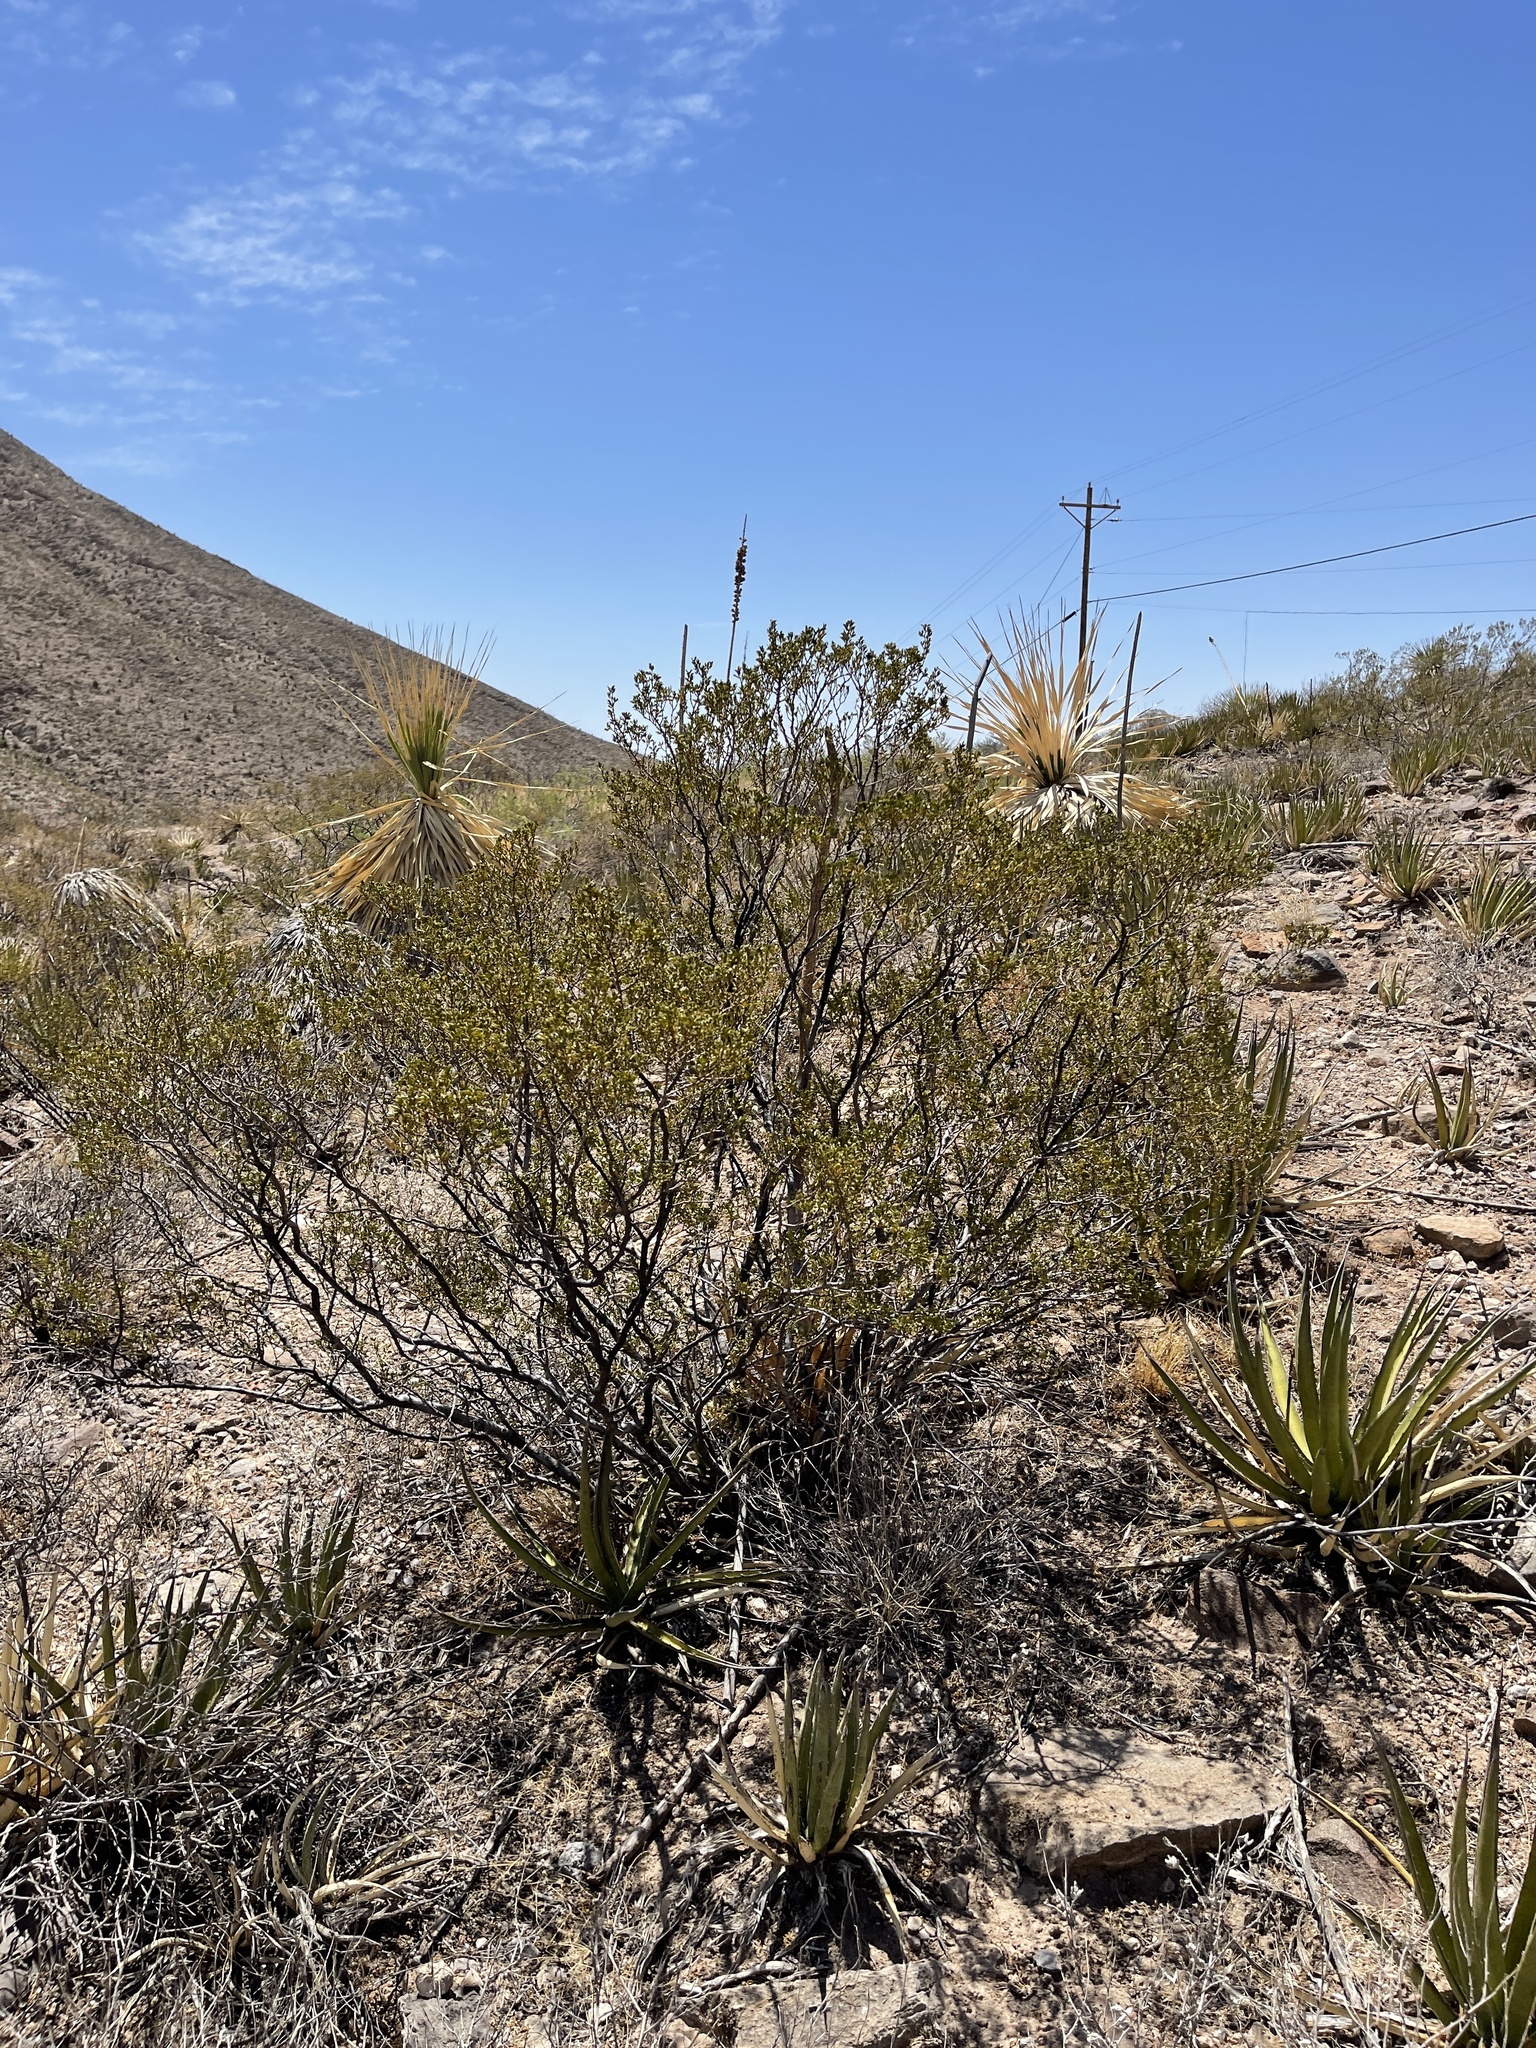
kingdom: Plantae
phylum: Tracheophyta
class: Magnoliopsida
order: Zygophyllales
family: Zygophyllaceae
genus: Larrea
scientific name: Larrea tridentata
